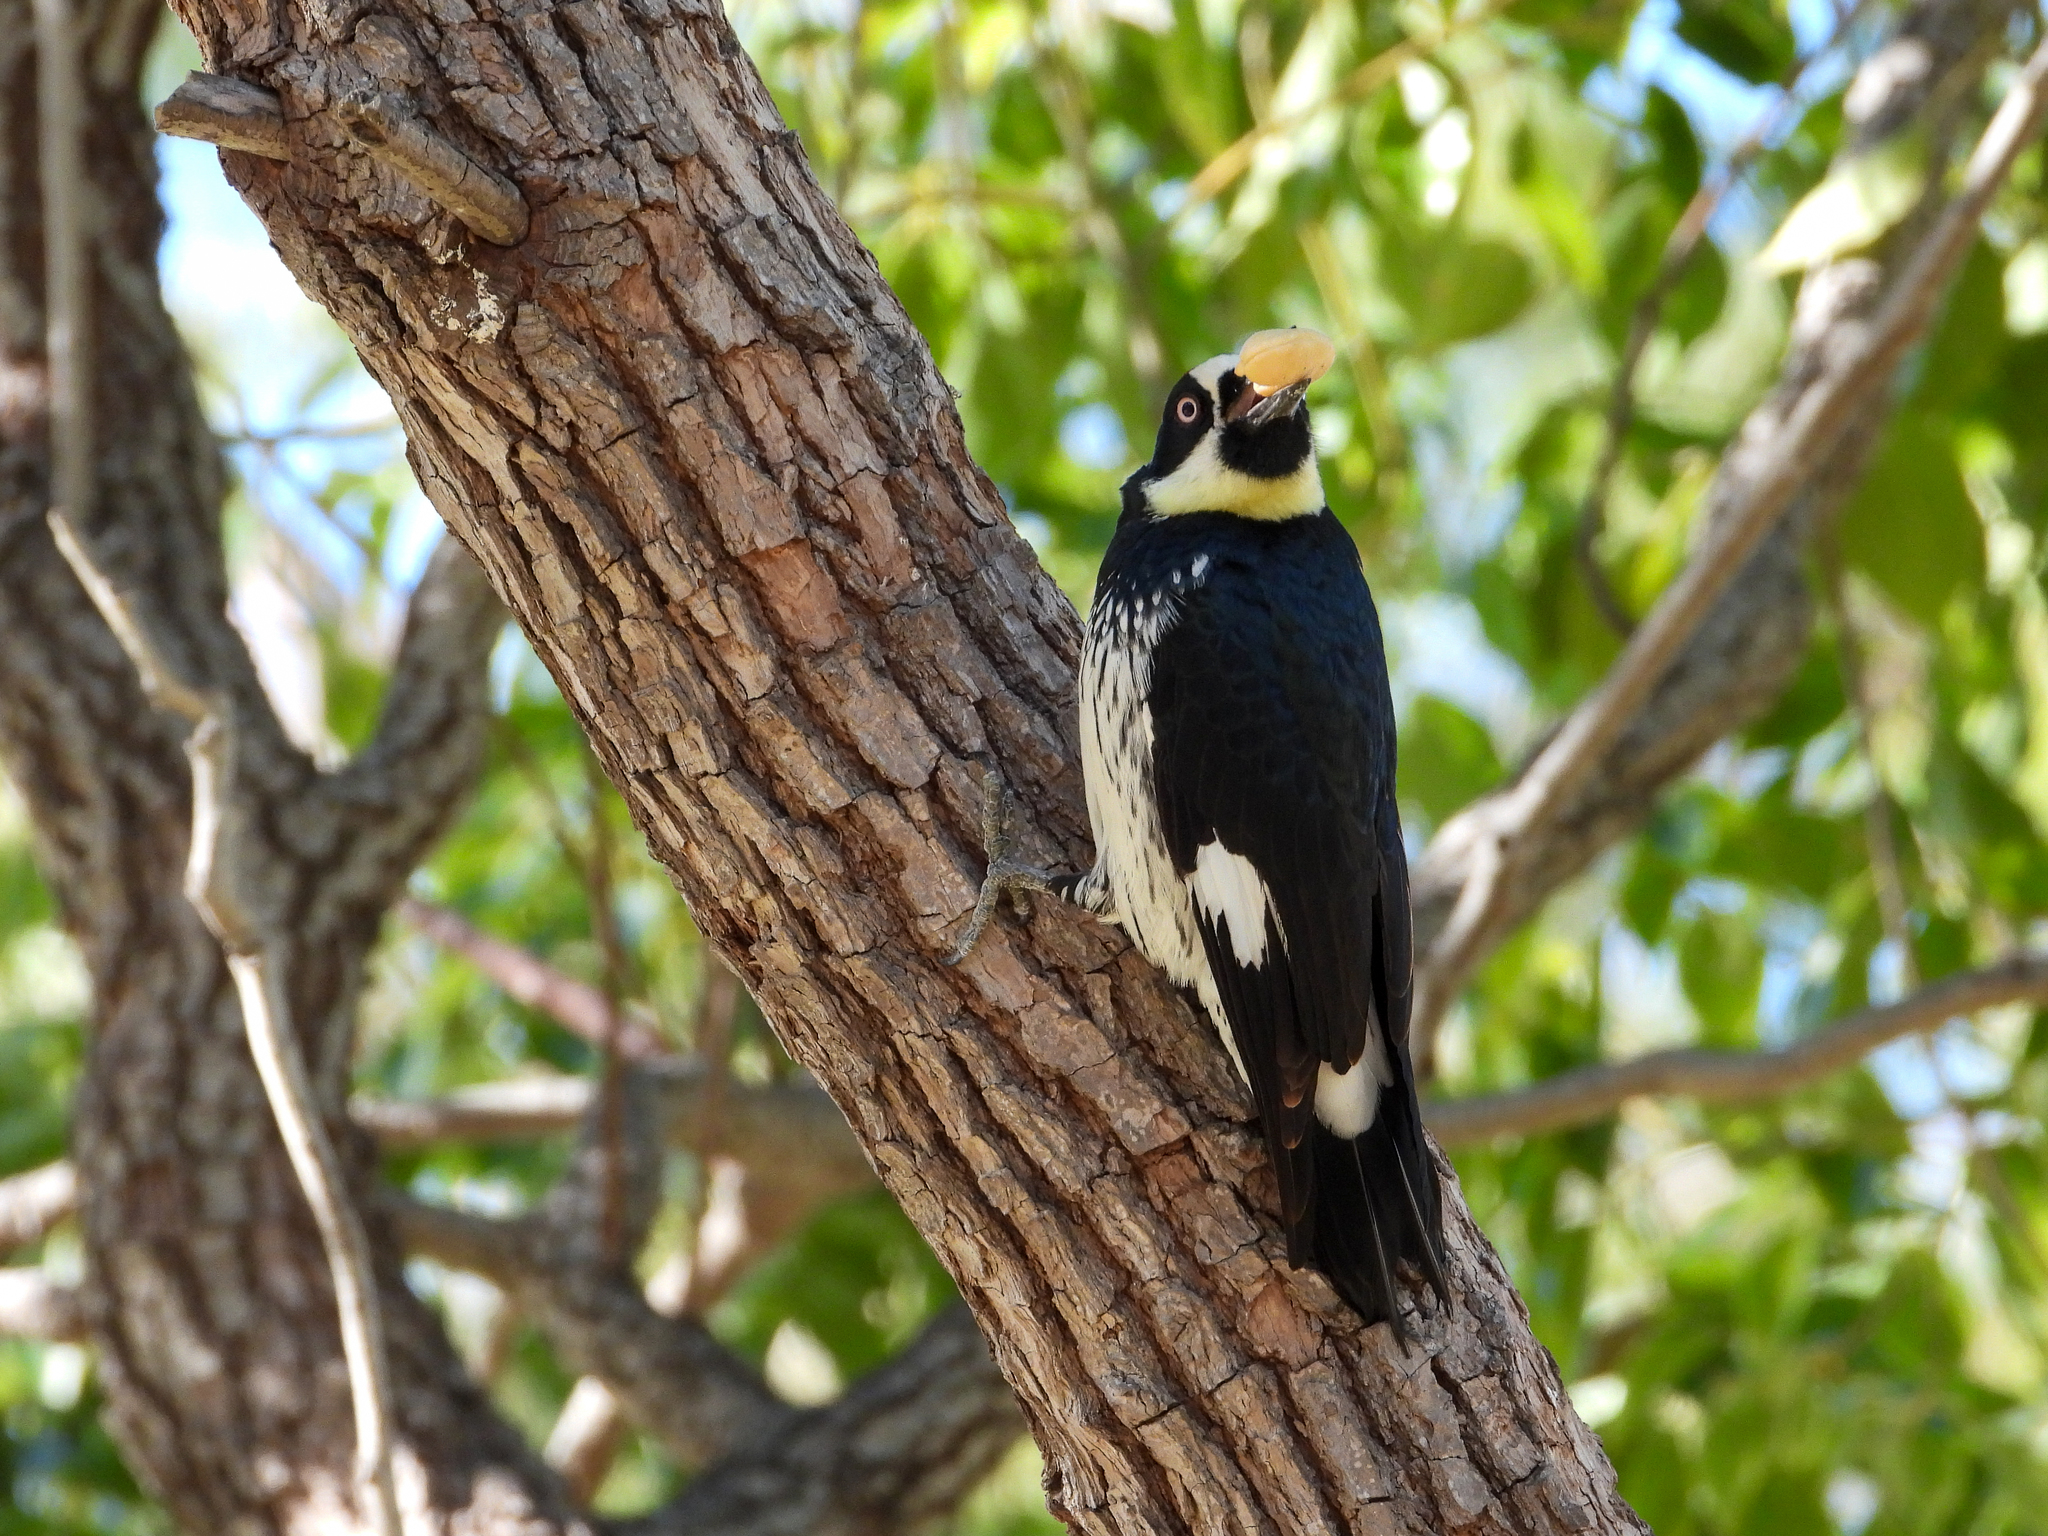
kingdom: Animalia
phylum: Chordata
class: Aves
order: Piciformes
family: Picidae
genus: Melanerpes
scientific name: Melanerpes formicivorus
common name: Acorn woodpecker
